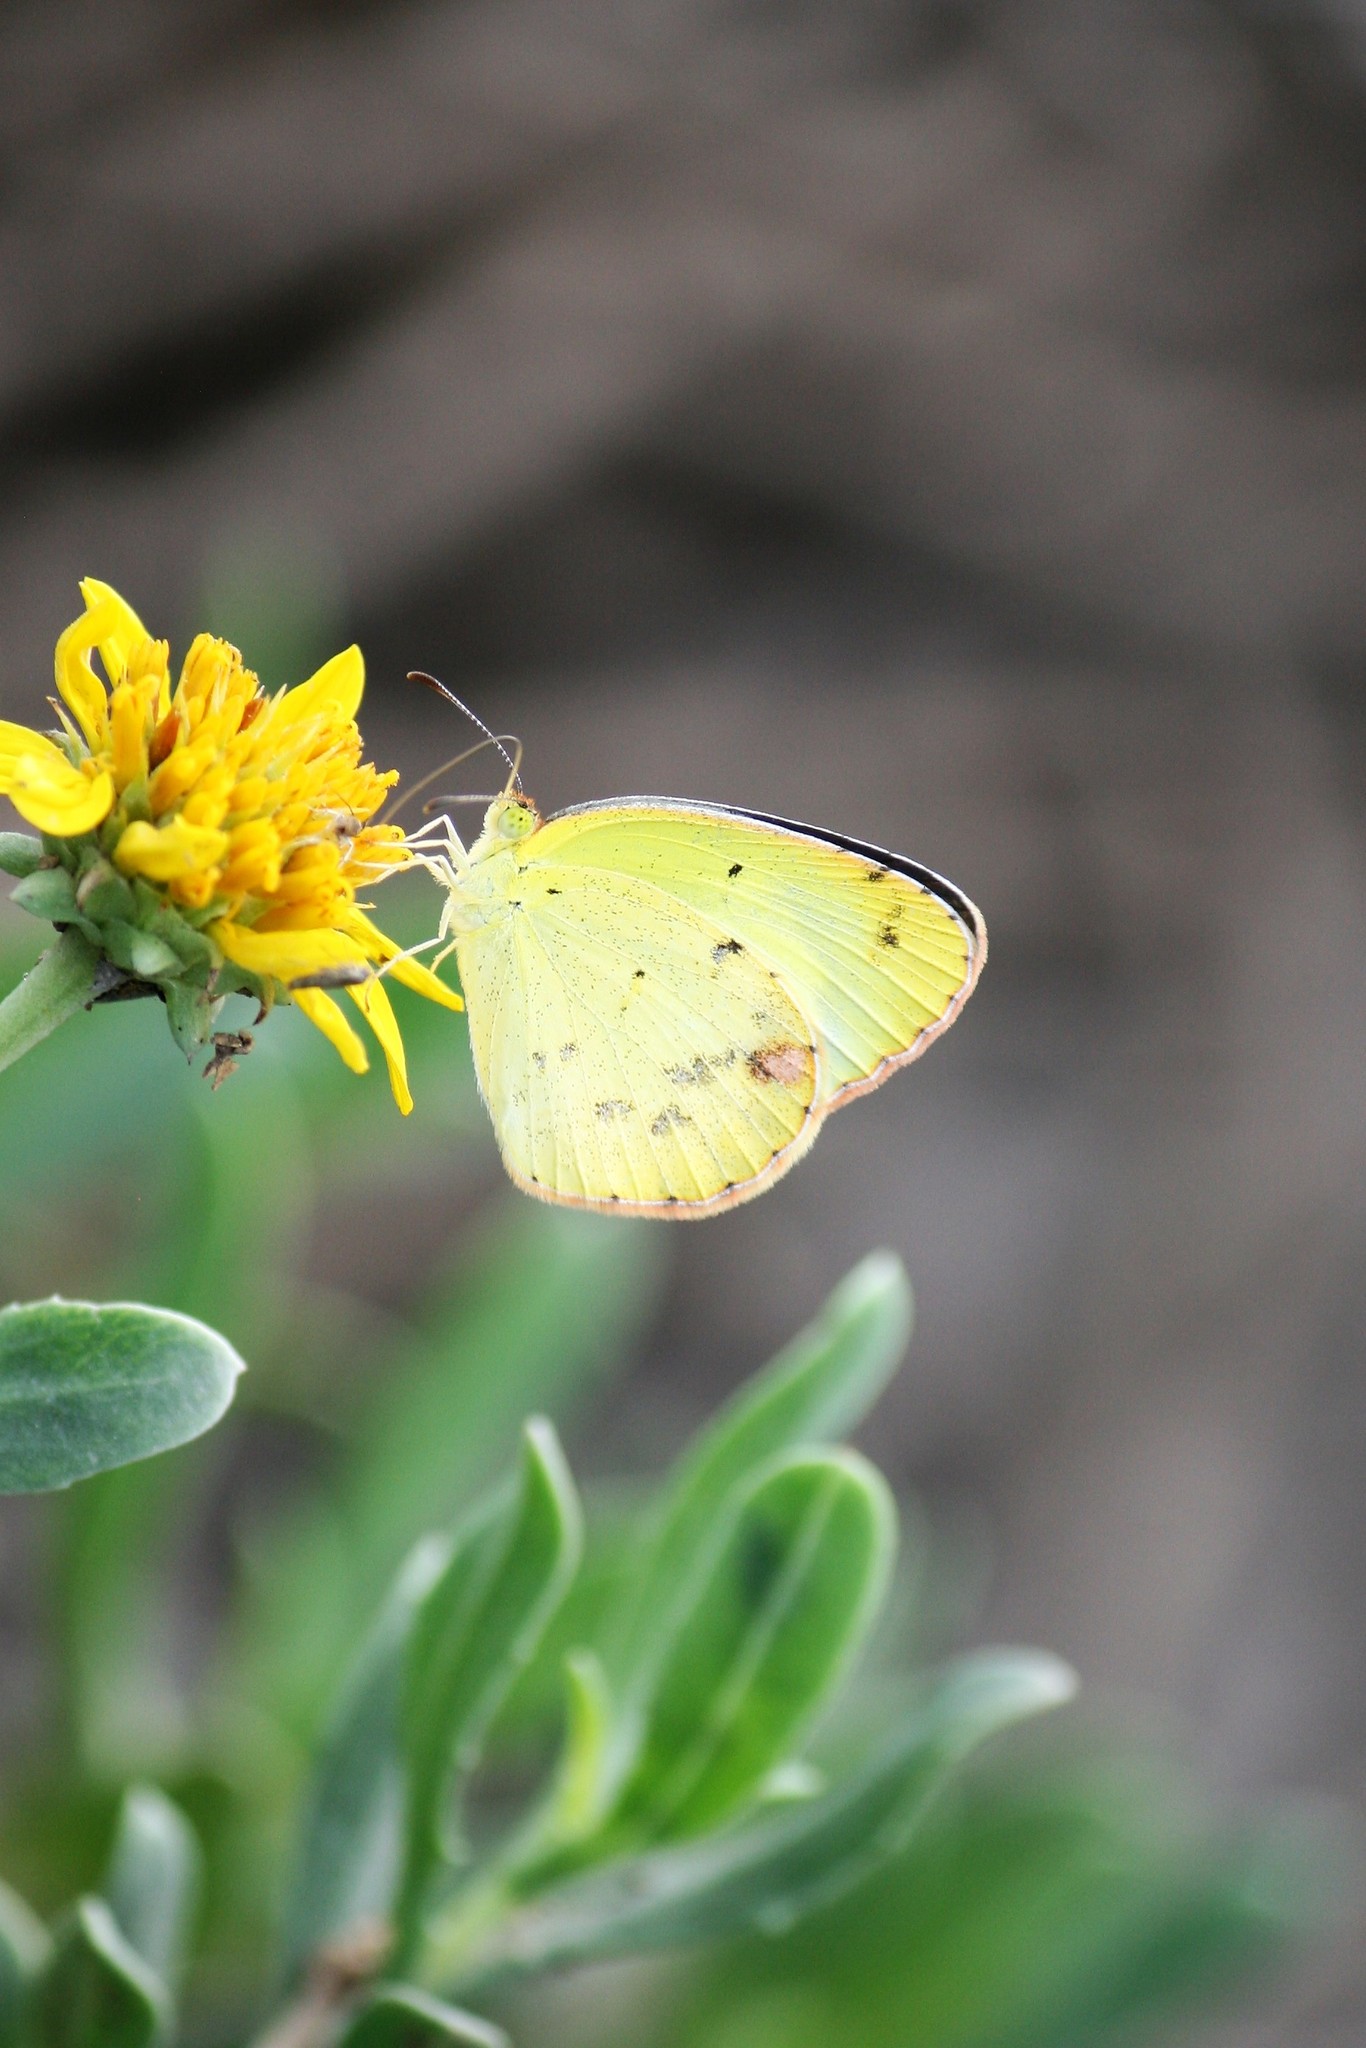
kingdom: Animalia
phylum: Arthropoda
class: Insecta
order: Lepidoptera
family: Pieridae
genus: Pyrisitia
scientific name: Pyrisitia lisa
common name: Little yellow
